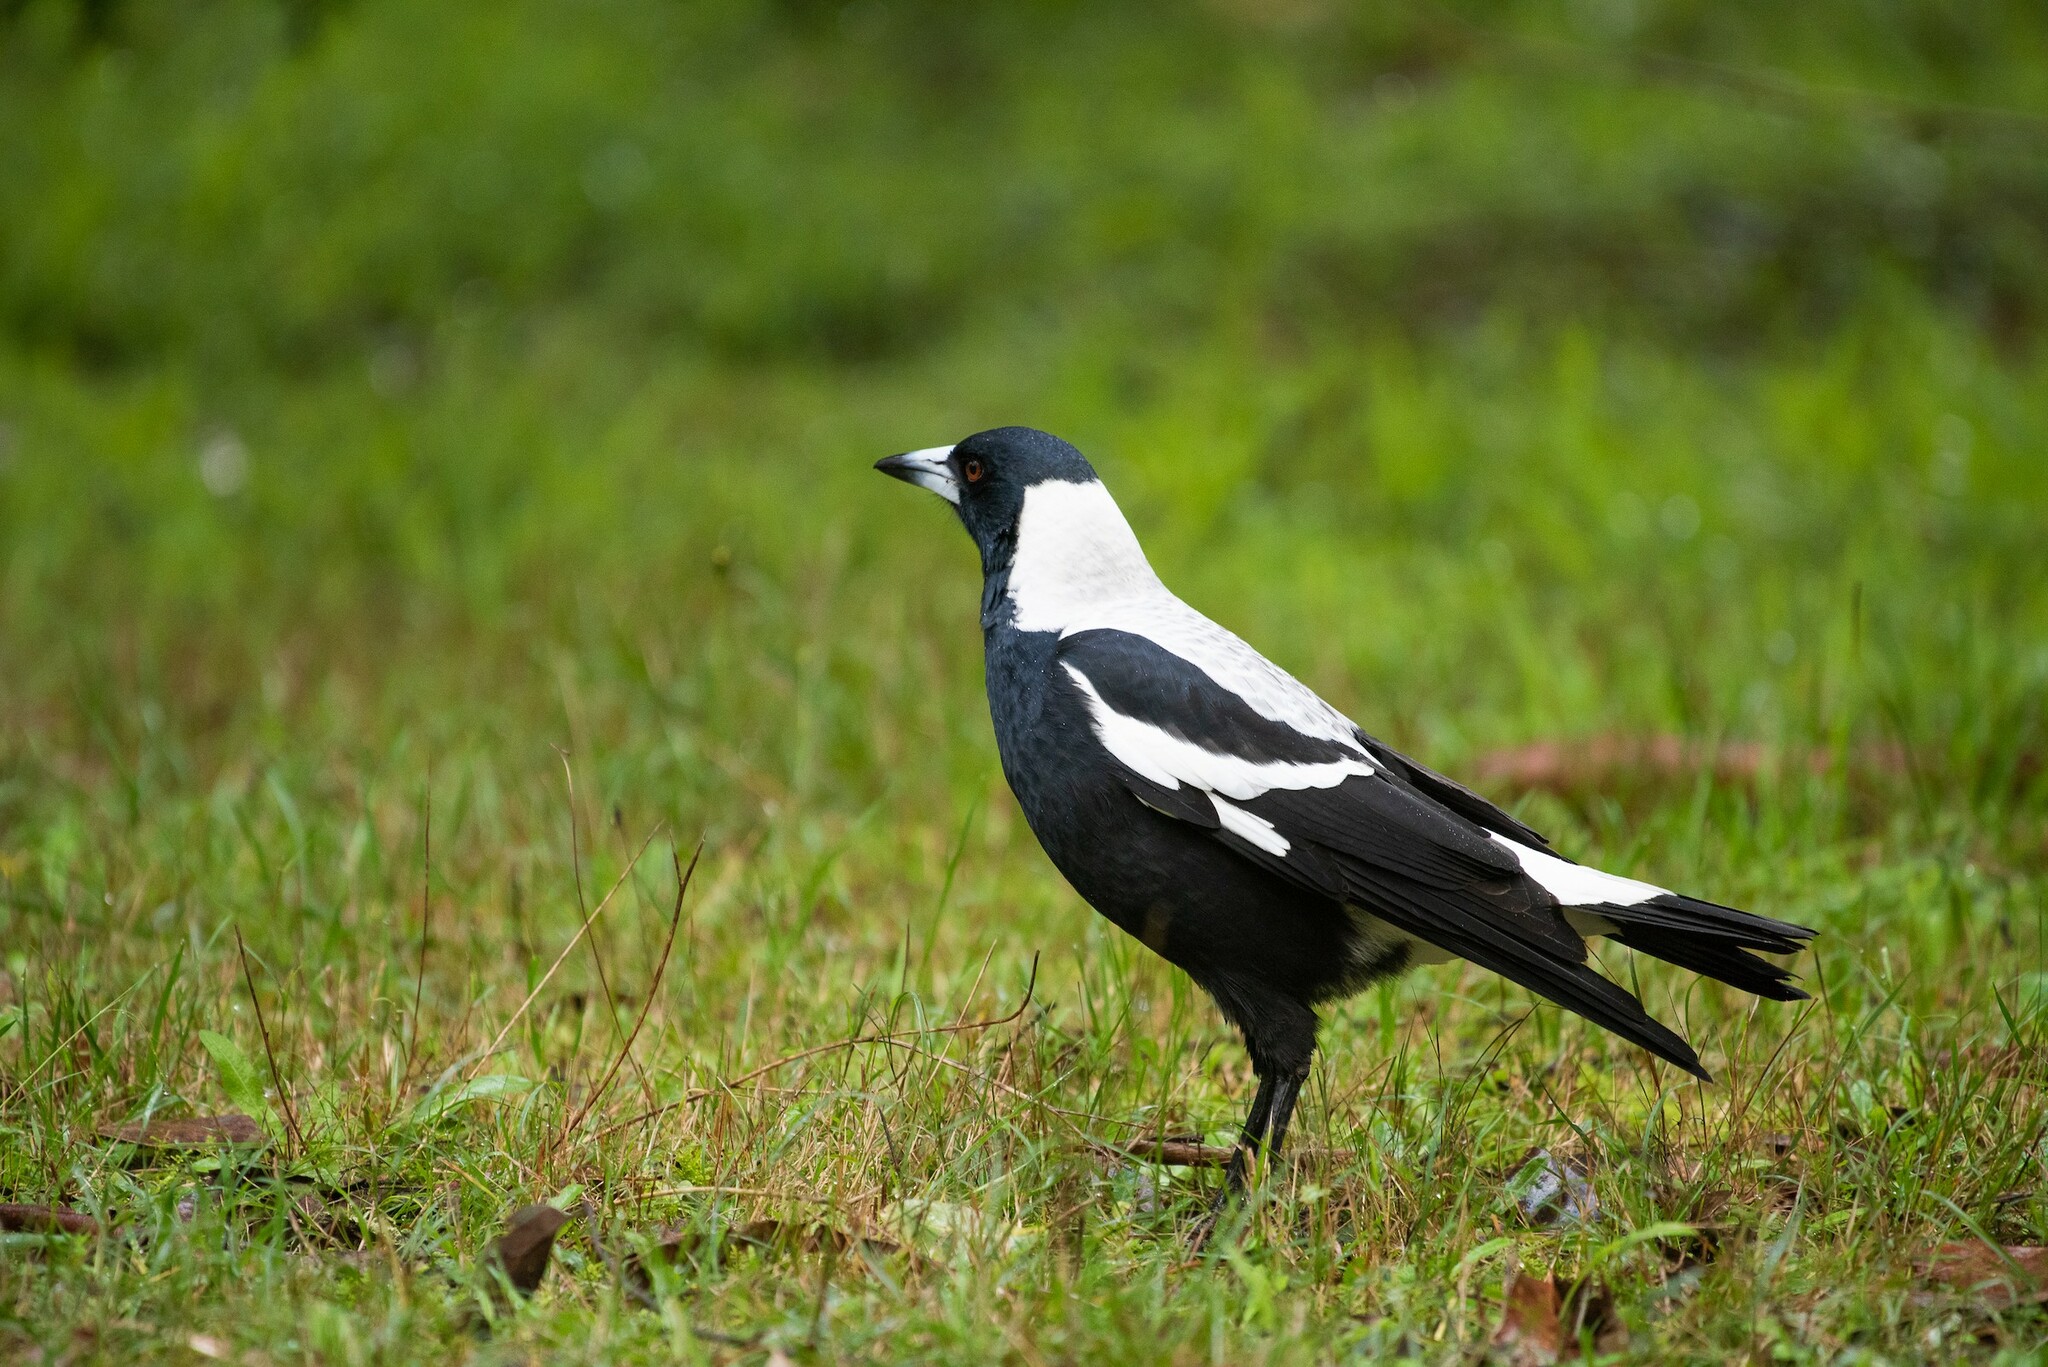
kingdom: Animalia
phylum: Chordata
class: Aves
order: Passeriformes
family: Cracticidae
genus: Gymnorhina
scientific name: Gymnorhina tibicen
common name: Australian magpie
